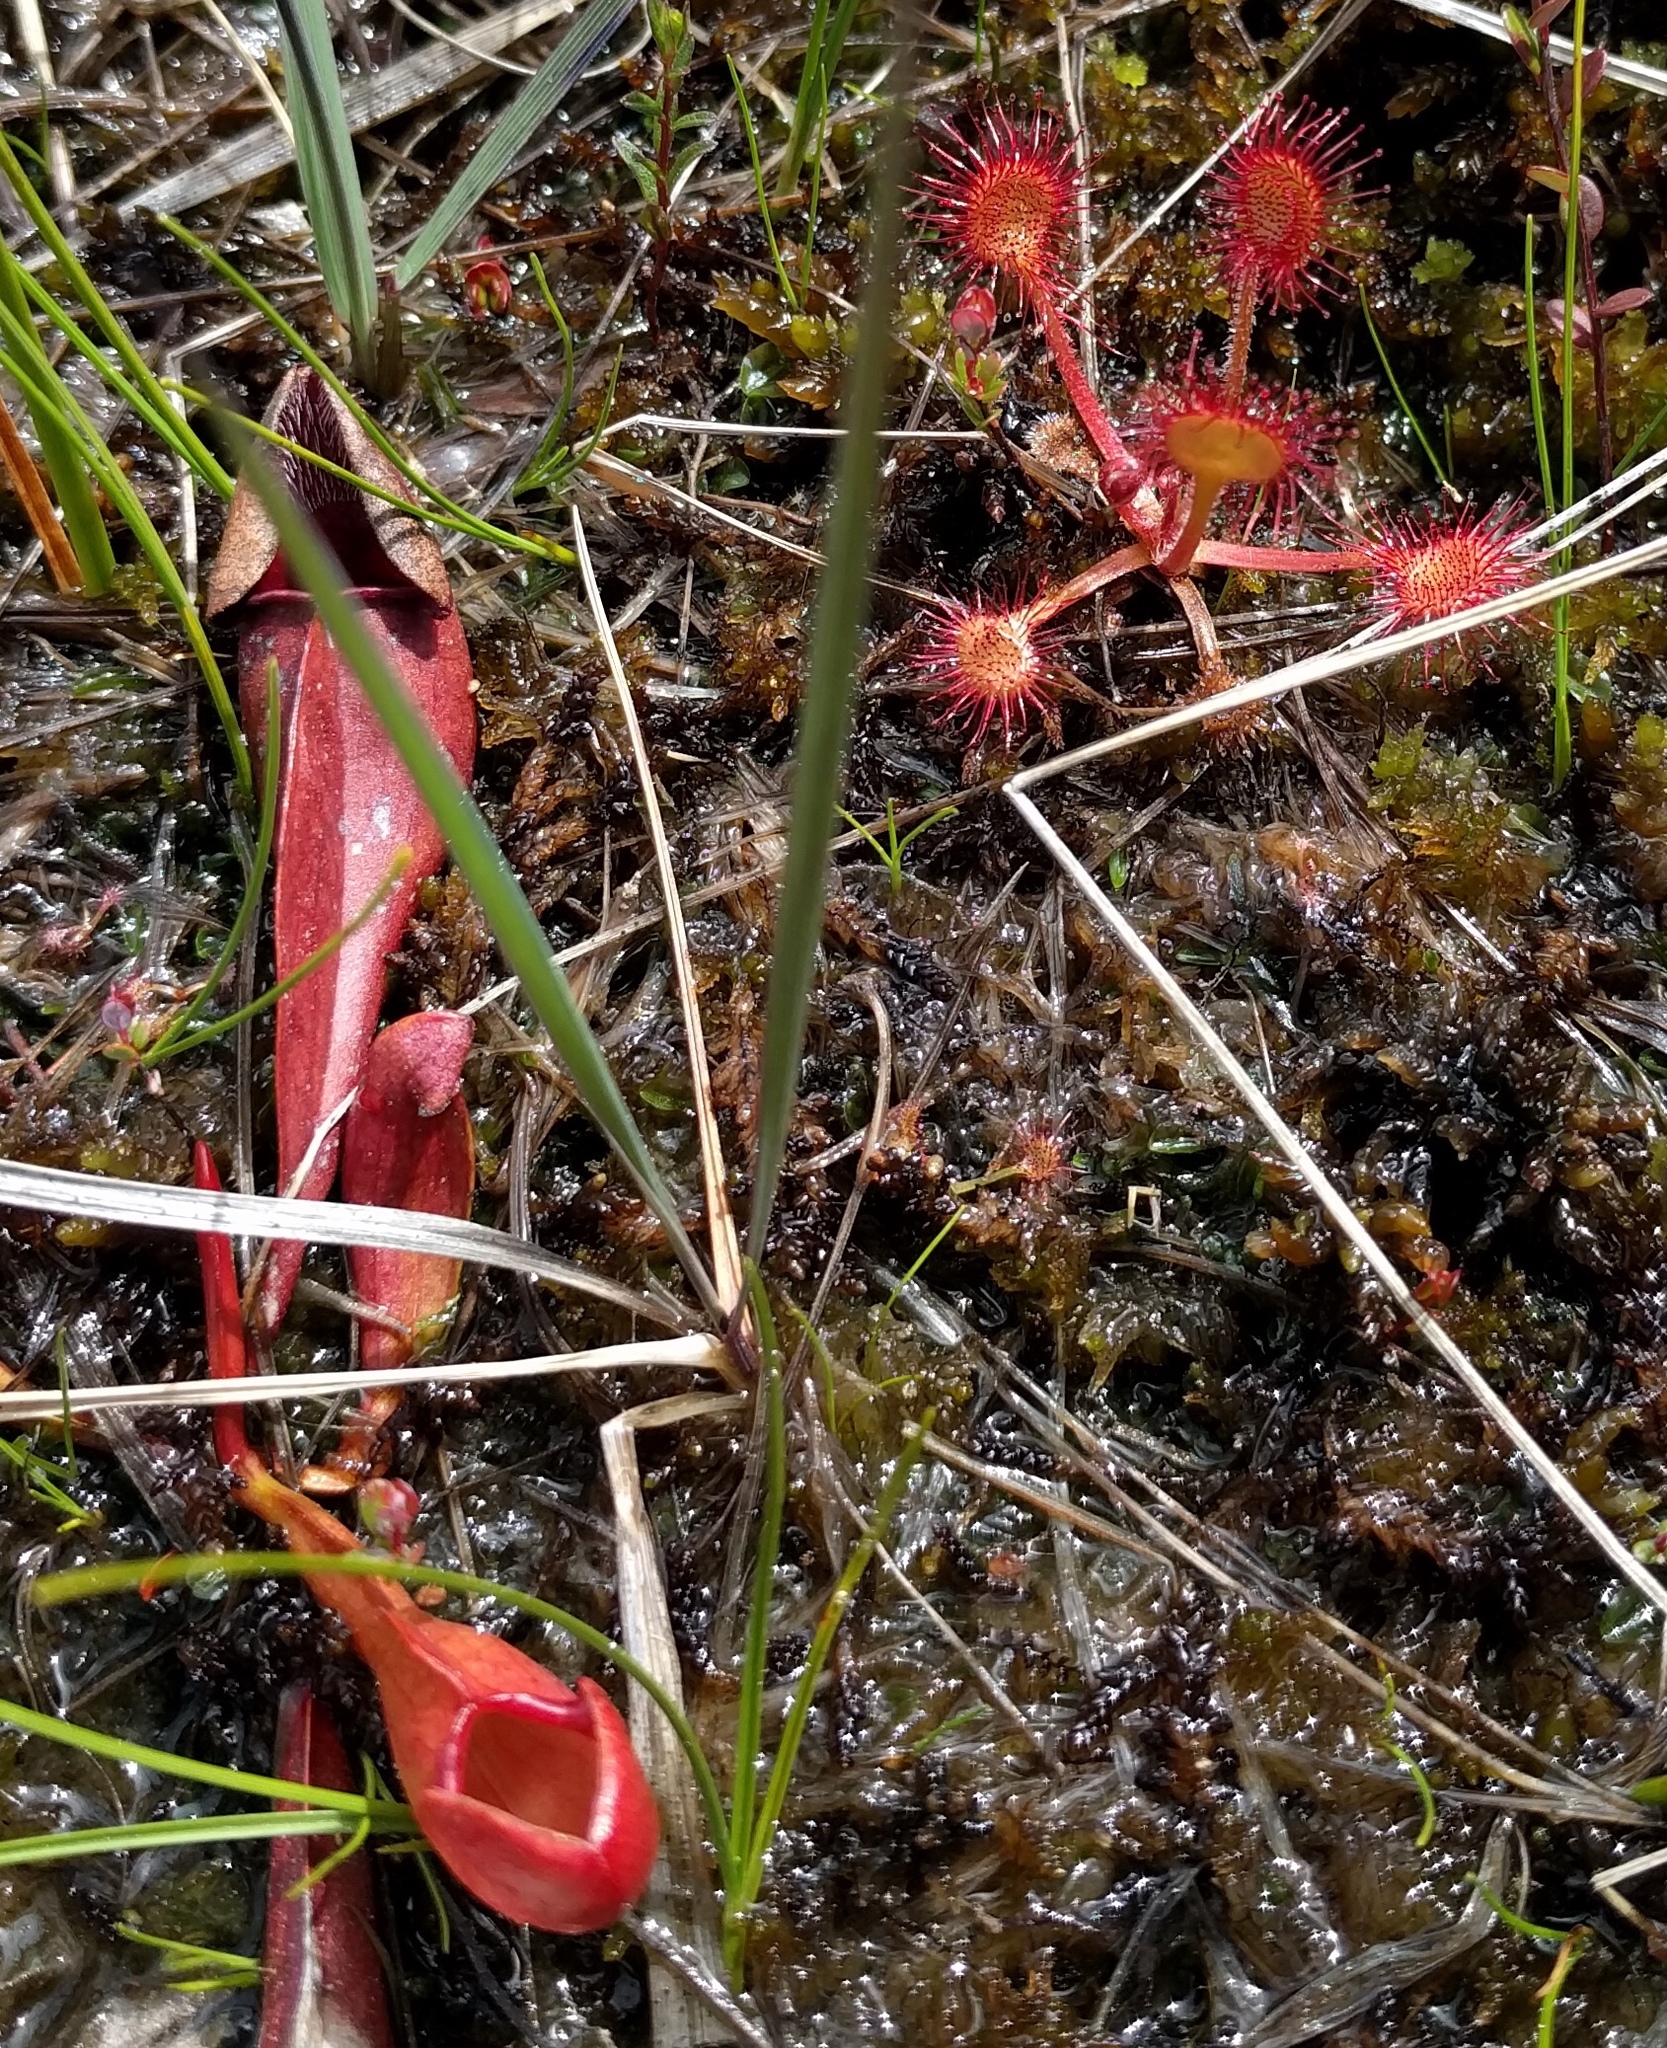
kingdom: Plantae
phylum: Tracheophyta
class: Magnoliopsida
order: Caryophyllales
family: Droseraceae
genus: Drosera
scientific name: Drosera rotundifolia
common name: Round-leaved sundew
